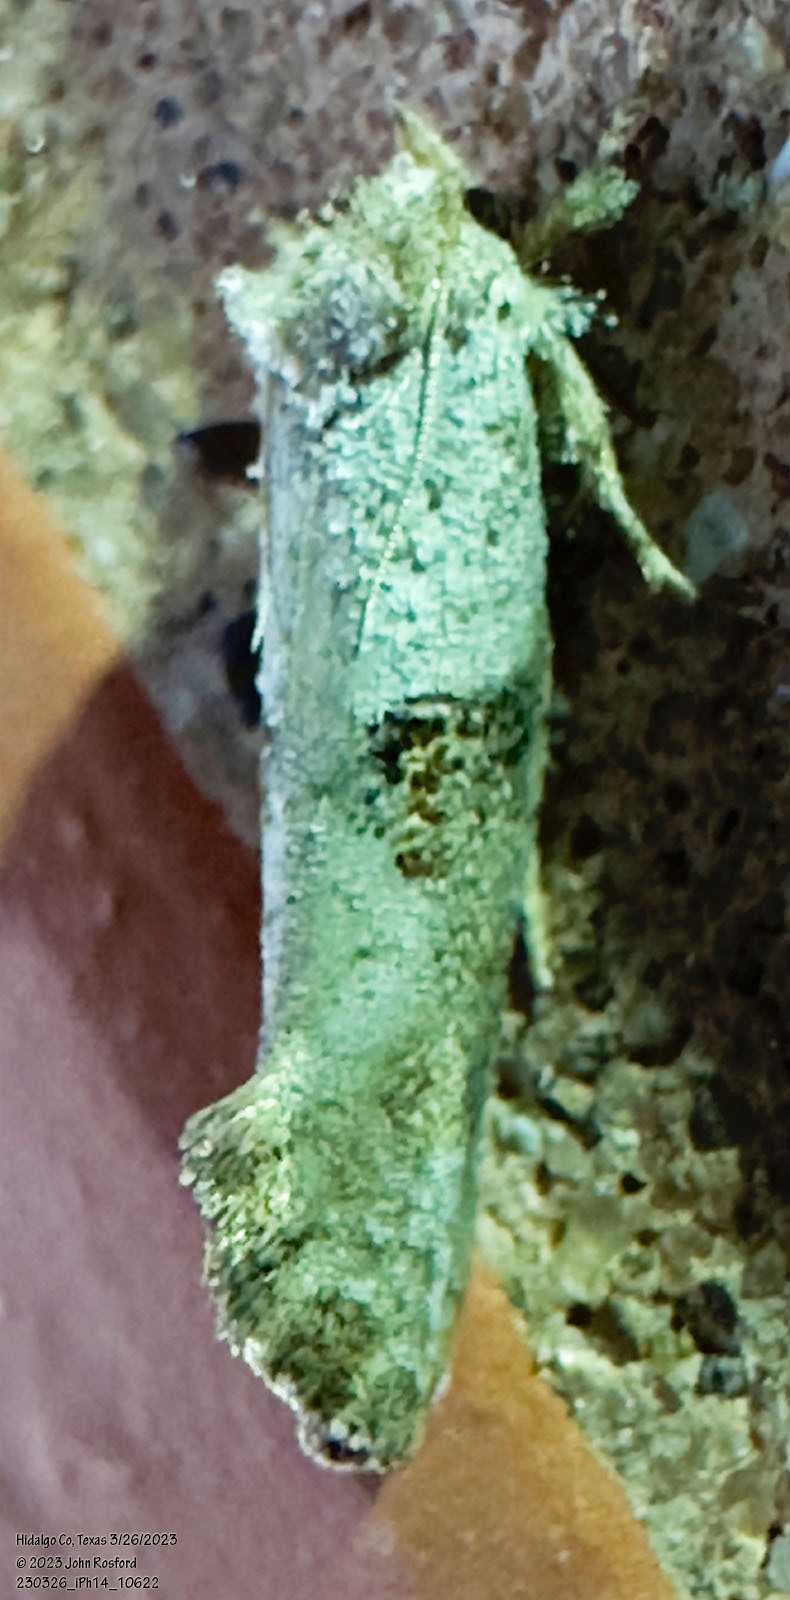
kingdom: Animalia
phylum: Arthropoda
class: Insecta
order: Lepidoptera
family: Tineidae
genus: Acrolophus
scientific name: Acrolophus piger
